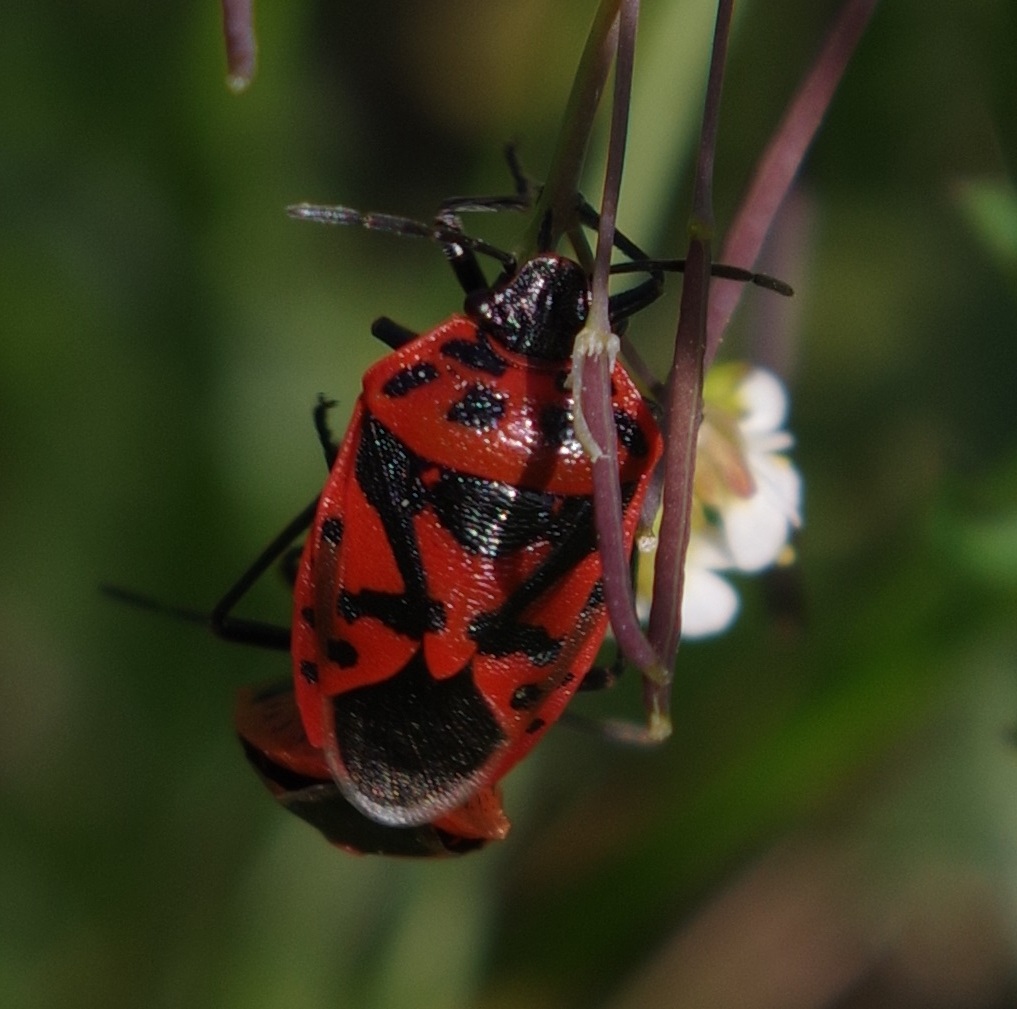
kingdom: Animalia
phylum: Arthropoda
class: Insecta
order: Hemiptera
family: Pentatomidae
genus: Eurydema
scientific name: Eurydema ornata
